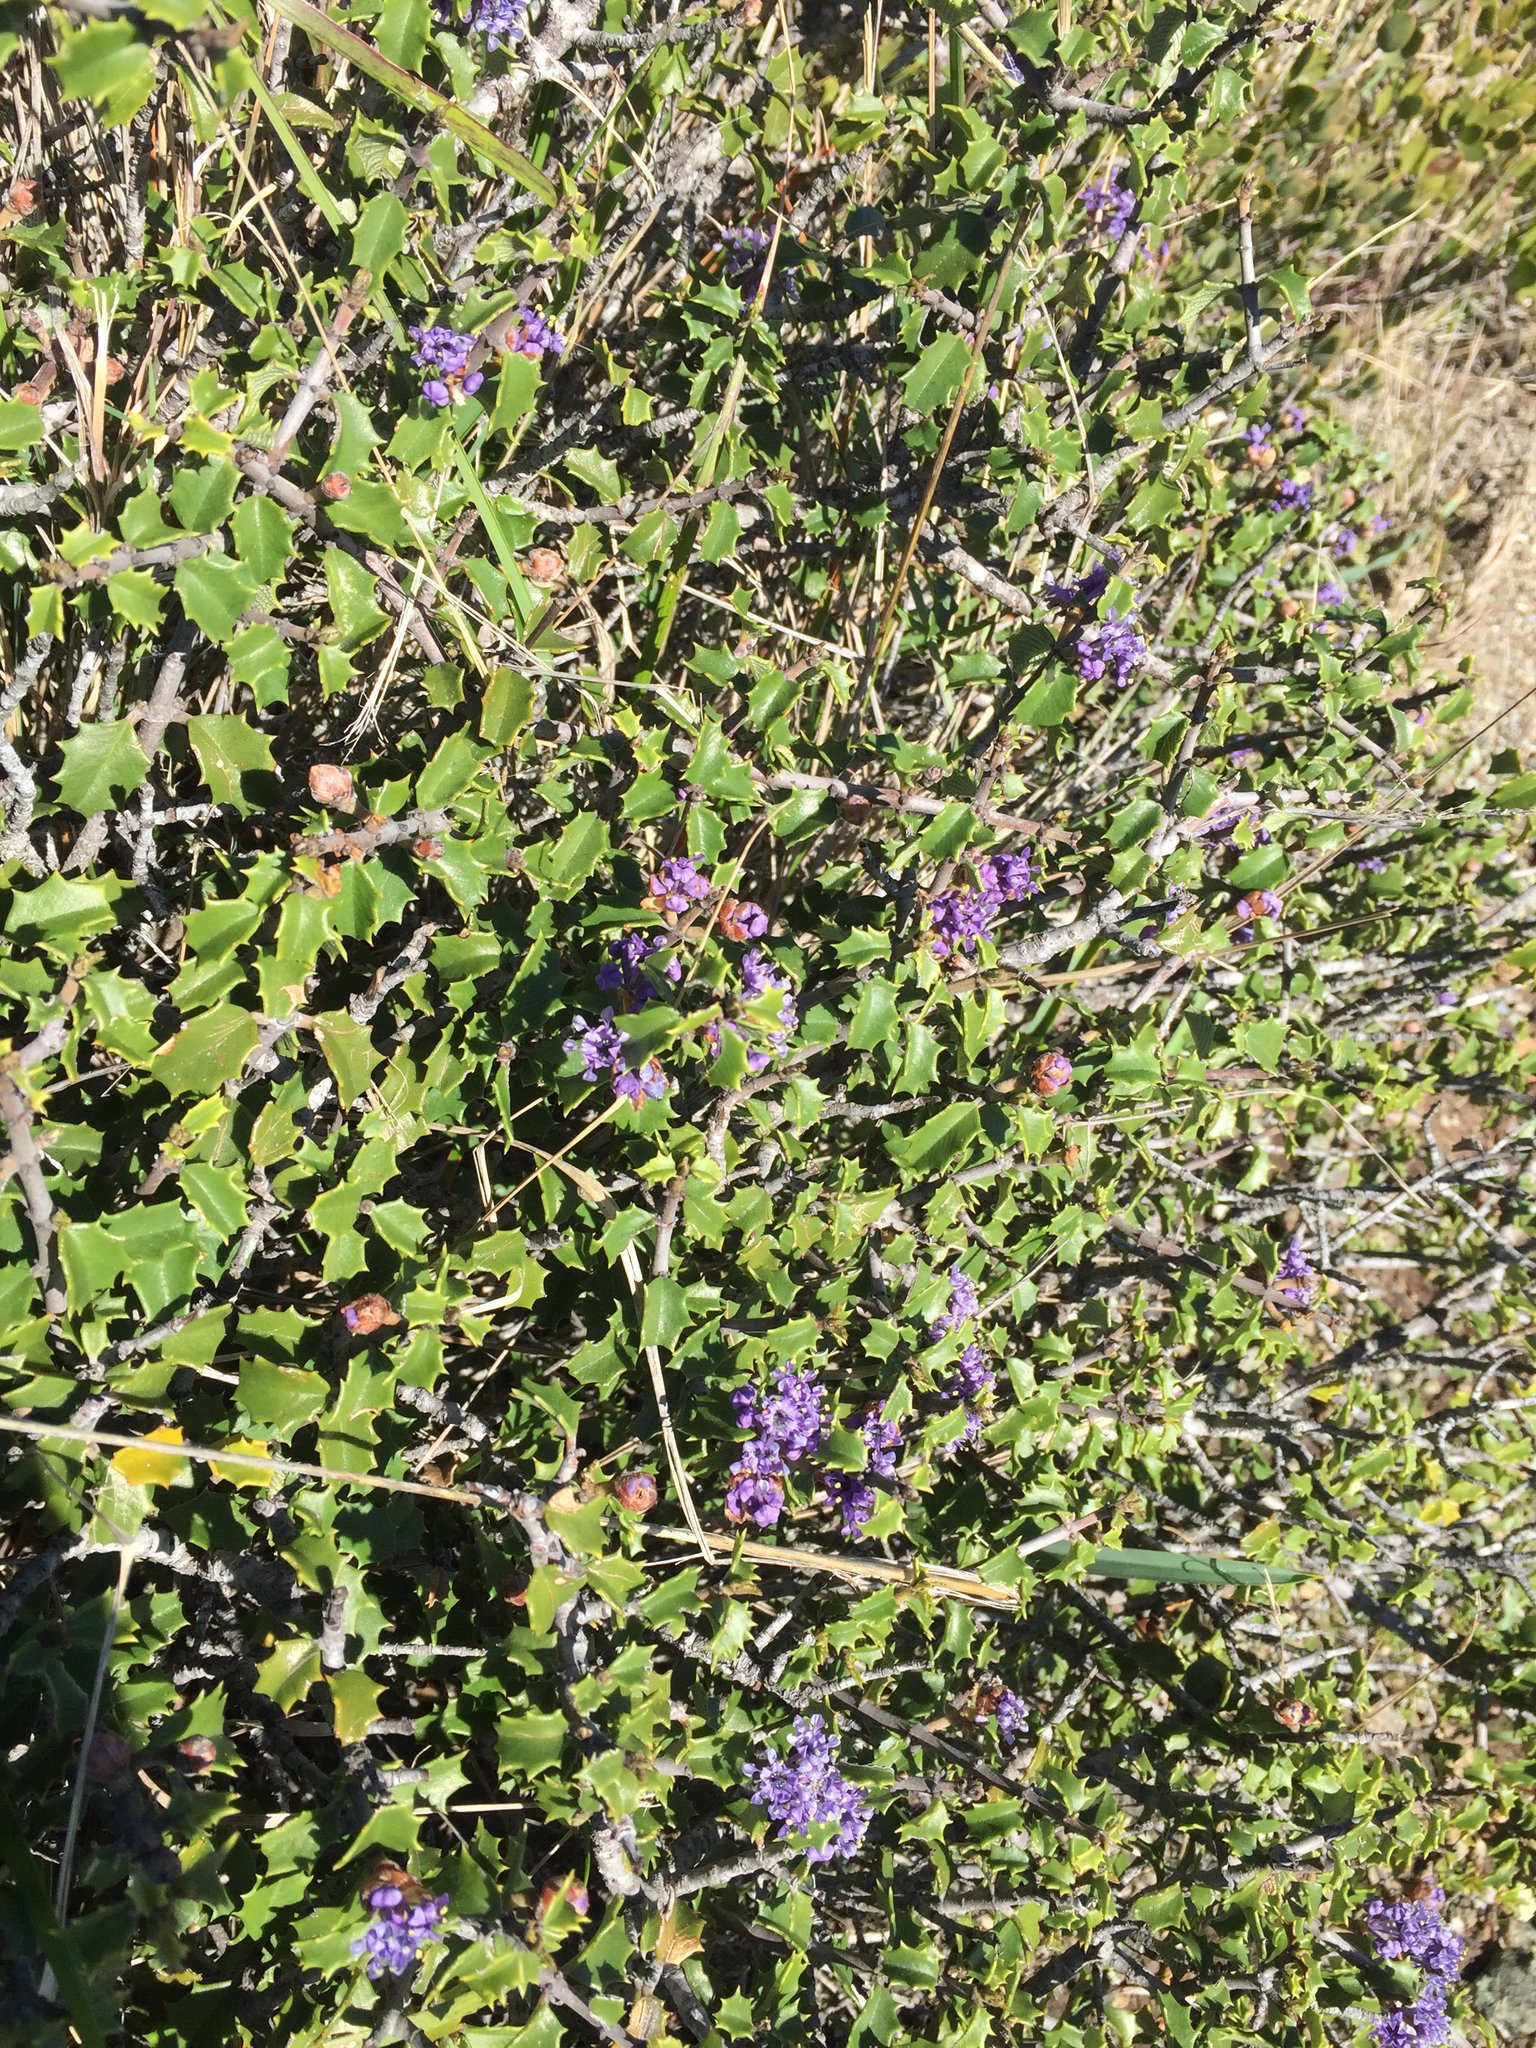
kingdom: Plantae
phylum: Tracheophyta
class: Magnoliopsida
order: Rosales
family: Rhamnaceae
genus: Ceanothus
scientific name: Ceanothus jepsonii
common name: Muskbrush
